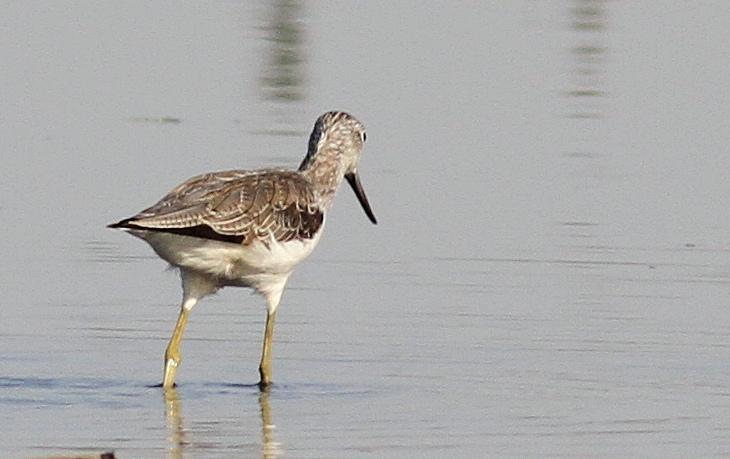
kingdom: Animalia
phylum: Chordata
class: Aves
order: Charadriiformes
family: Scolopacidae
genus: Tringa
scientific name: Tringa nebularia
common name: Common greenshank
